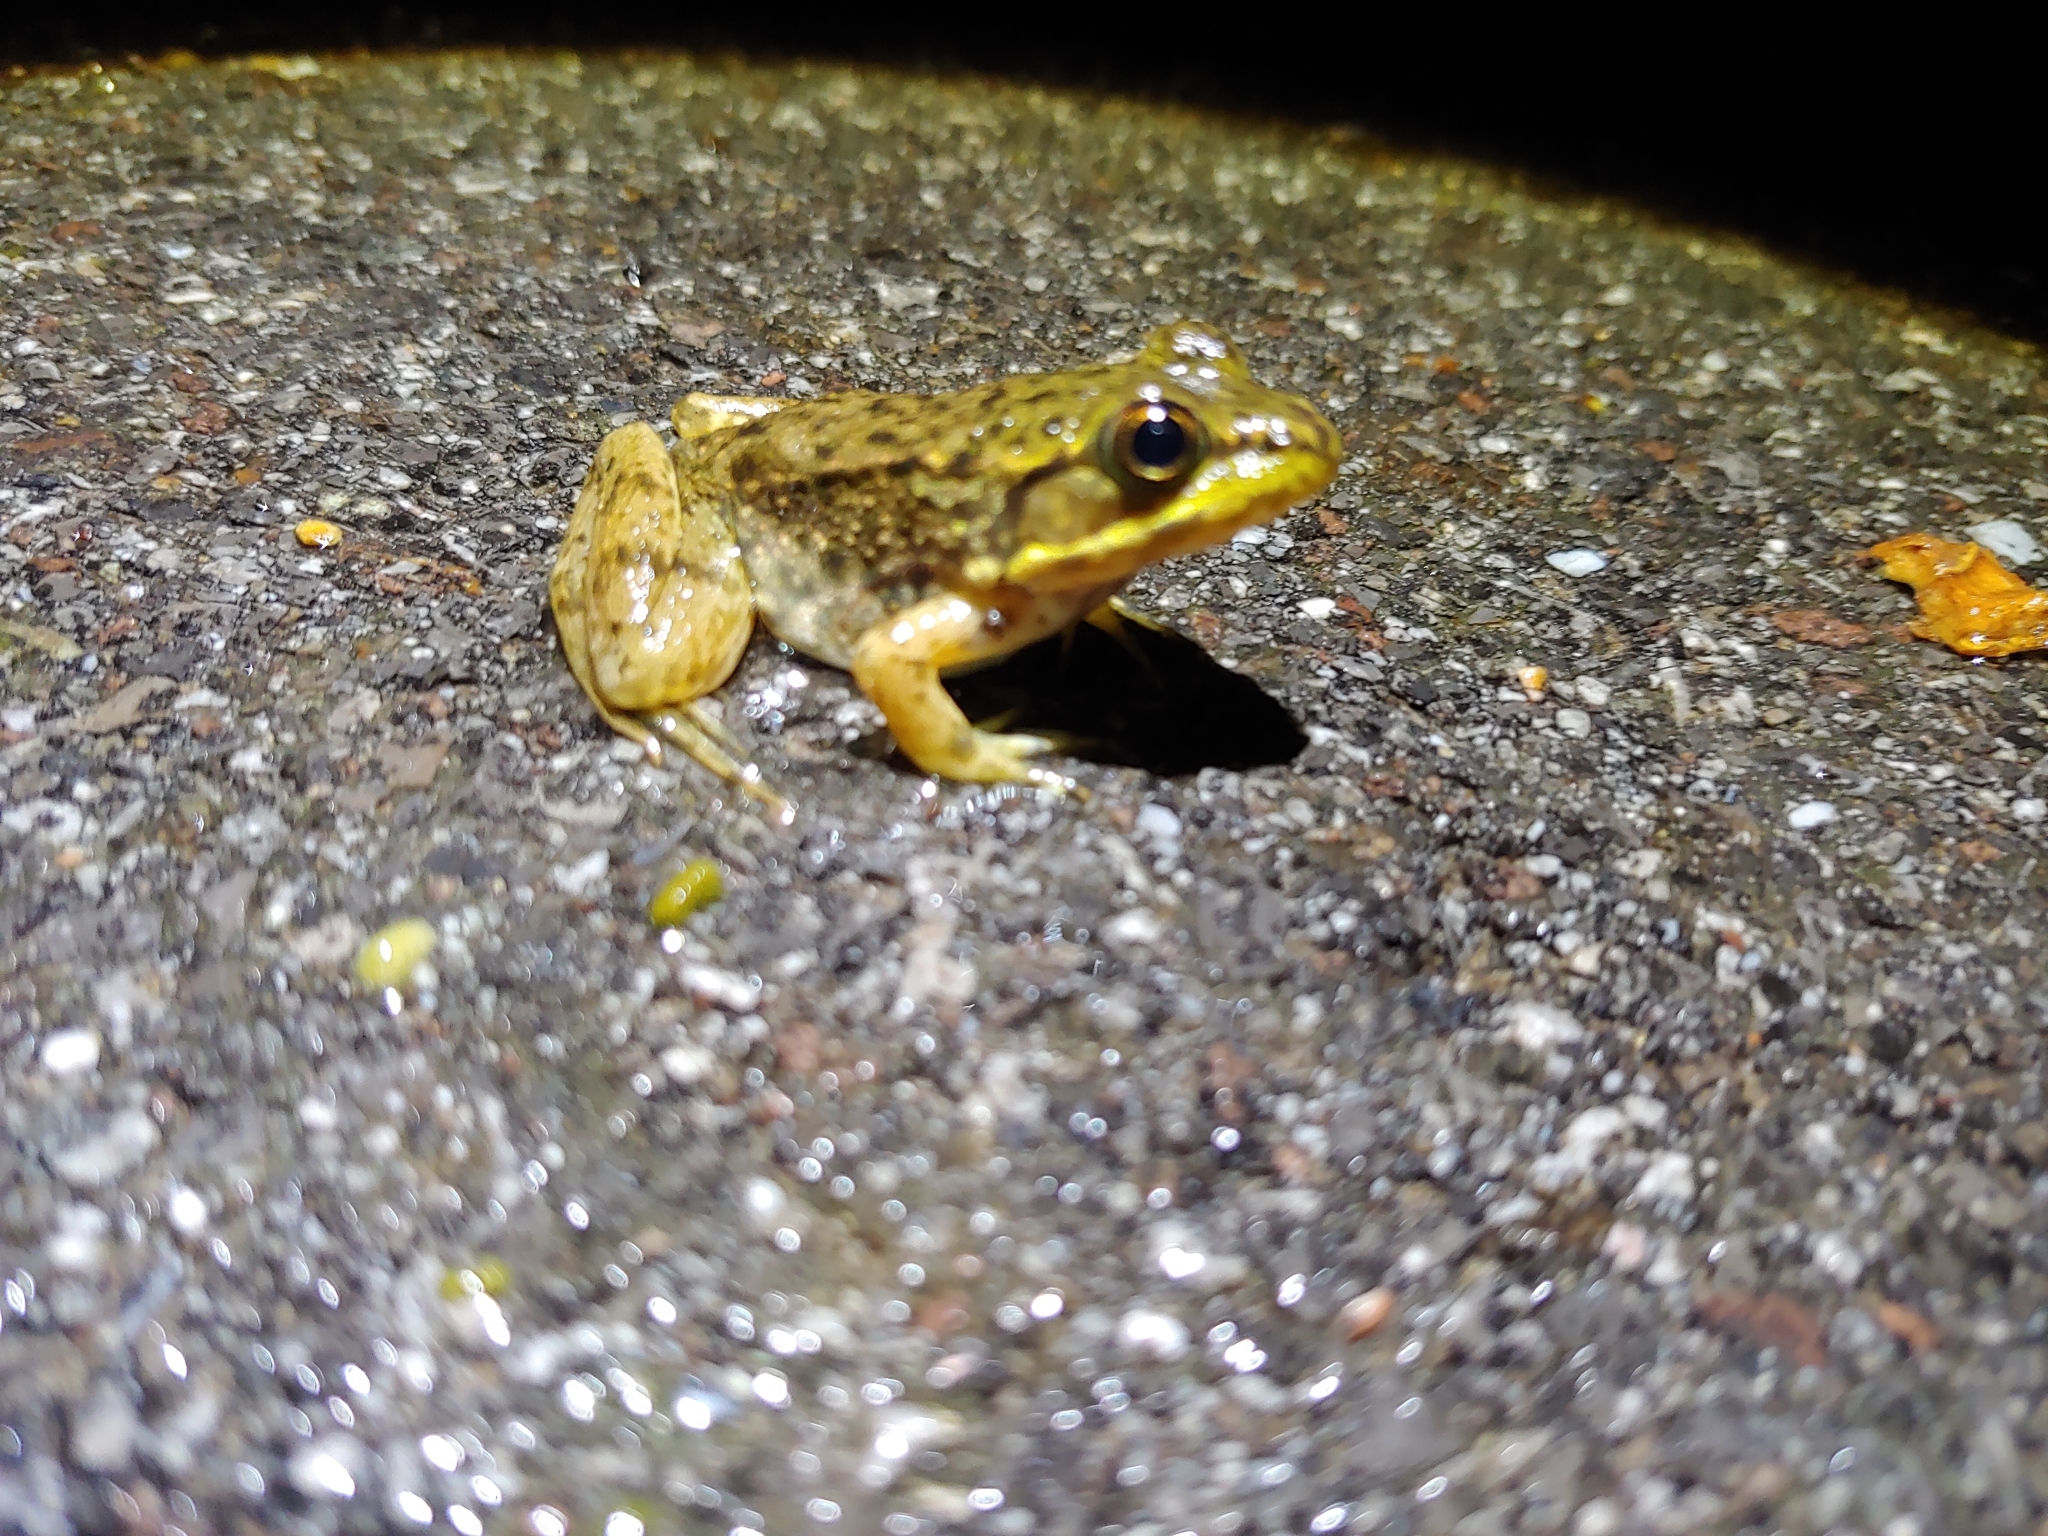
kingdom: Animalia
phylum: Chordata
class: Amphibia
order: Anura
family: Ranidae
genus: Lithobates
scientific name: Lithobates catesbeianus
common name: American bullfrog
